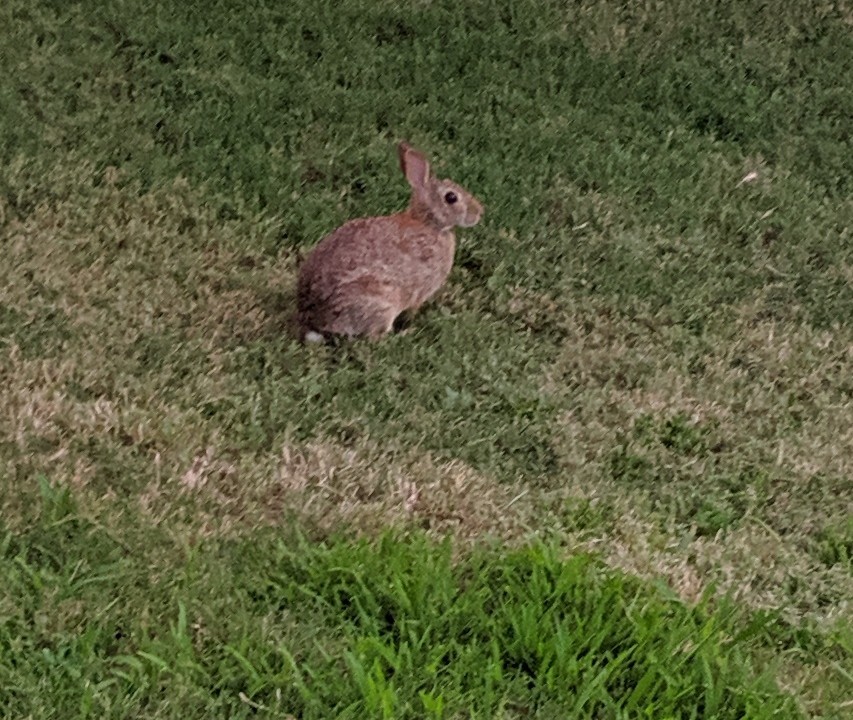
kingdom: Animalia
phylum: Chordata
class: Mammalia
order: Lagomorpha
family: Leporidae
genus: Sylvilagus
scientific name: Sylvilagus floridanus
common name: Eastern cottontail
